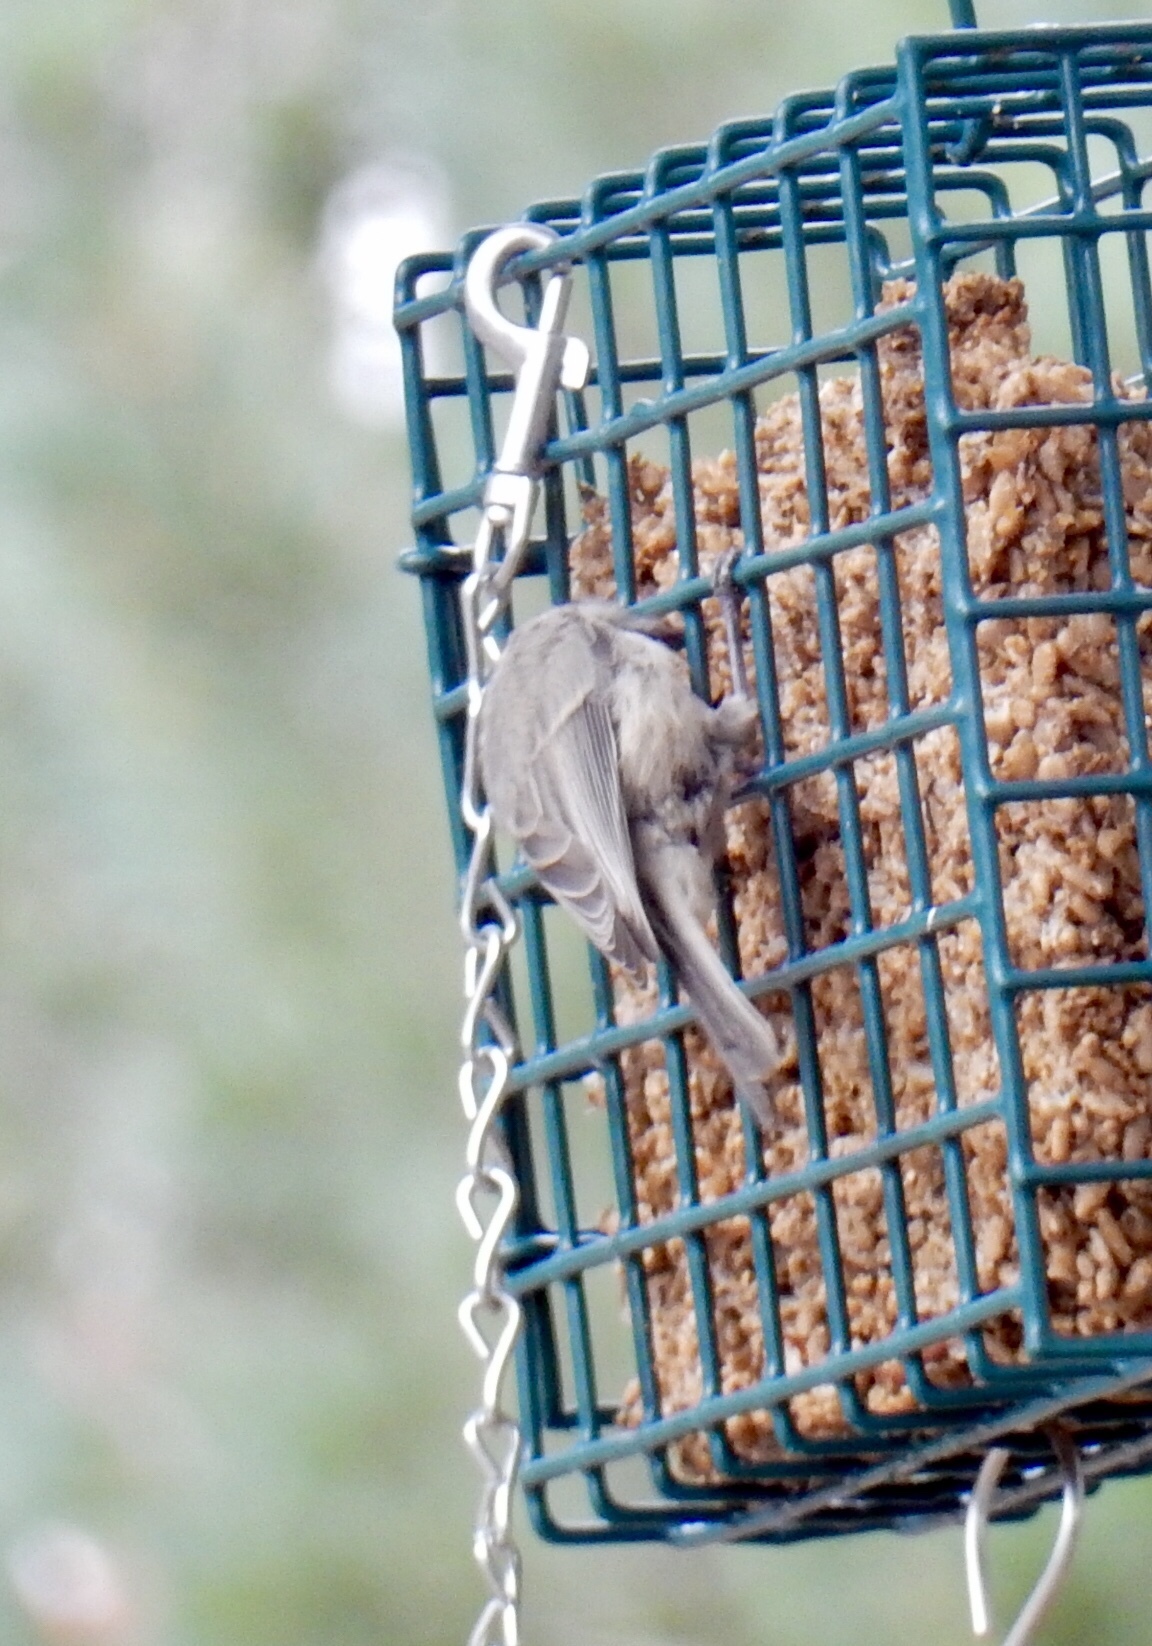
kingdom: Animalia
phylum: Chordata
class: Aves
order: Passeriformes
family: Paridae
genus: Poecile
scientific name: Poecile gambeli
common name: Mountain chickadee
